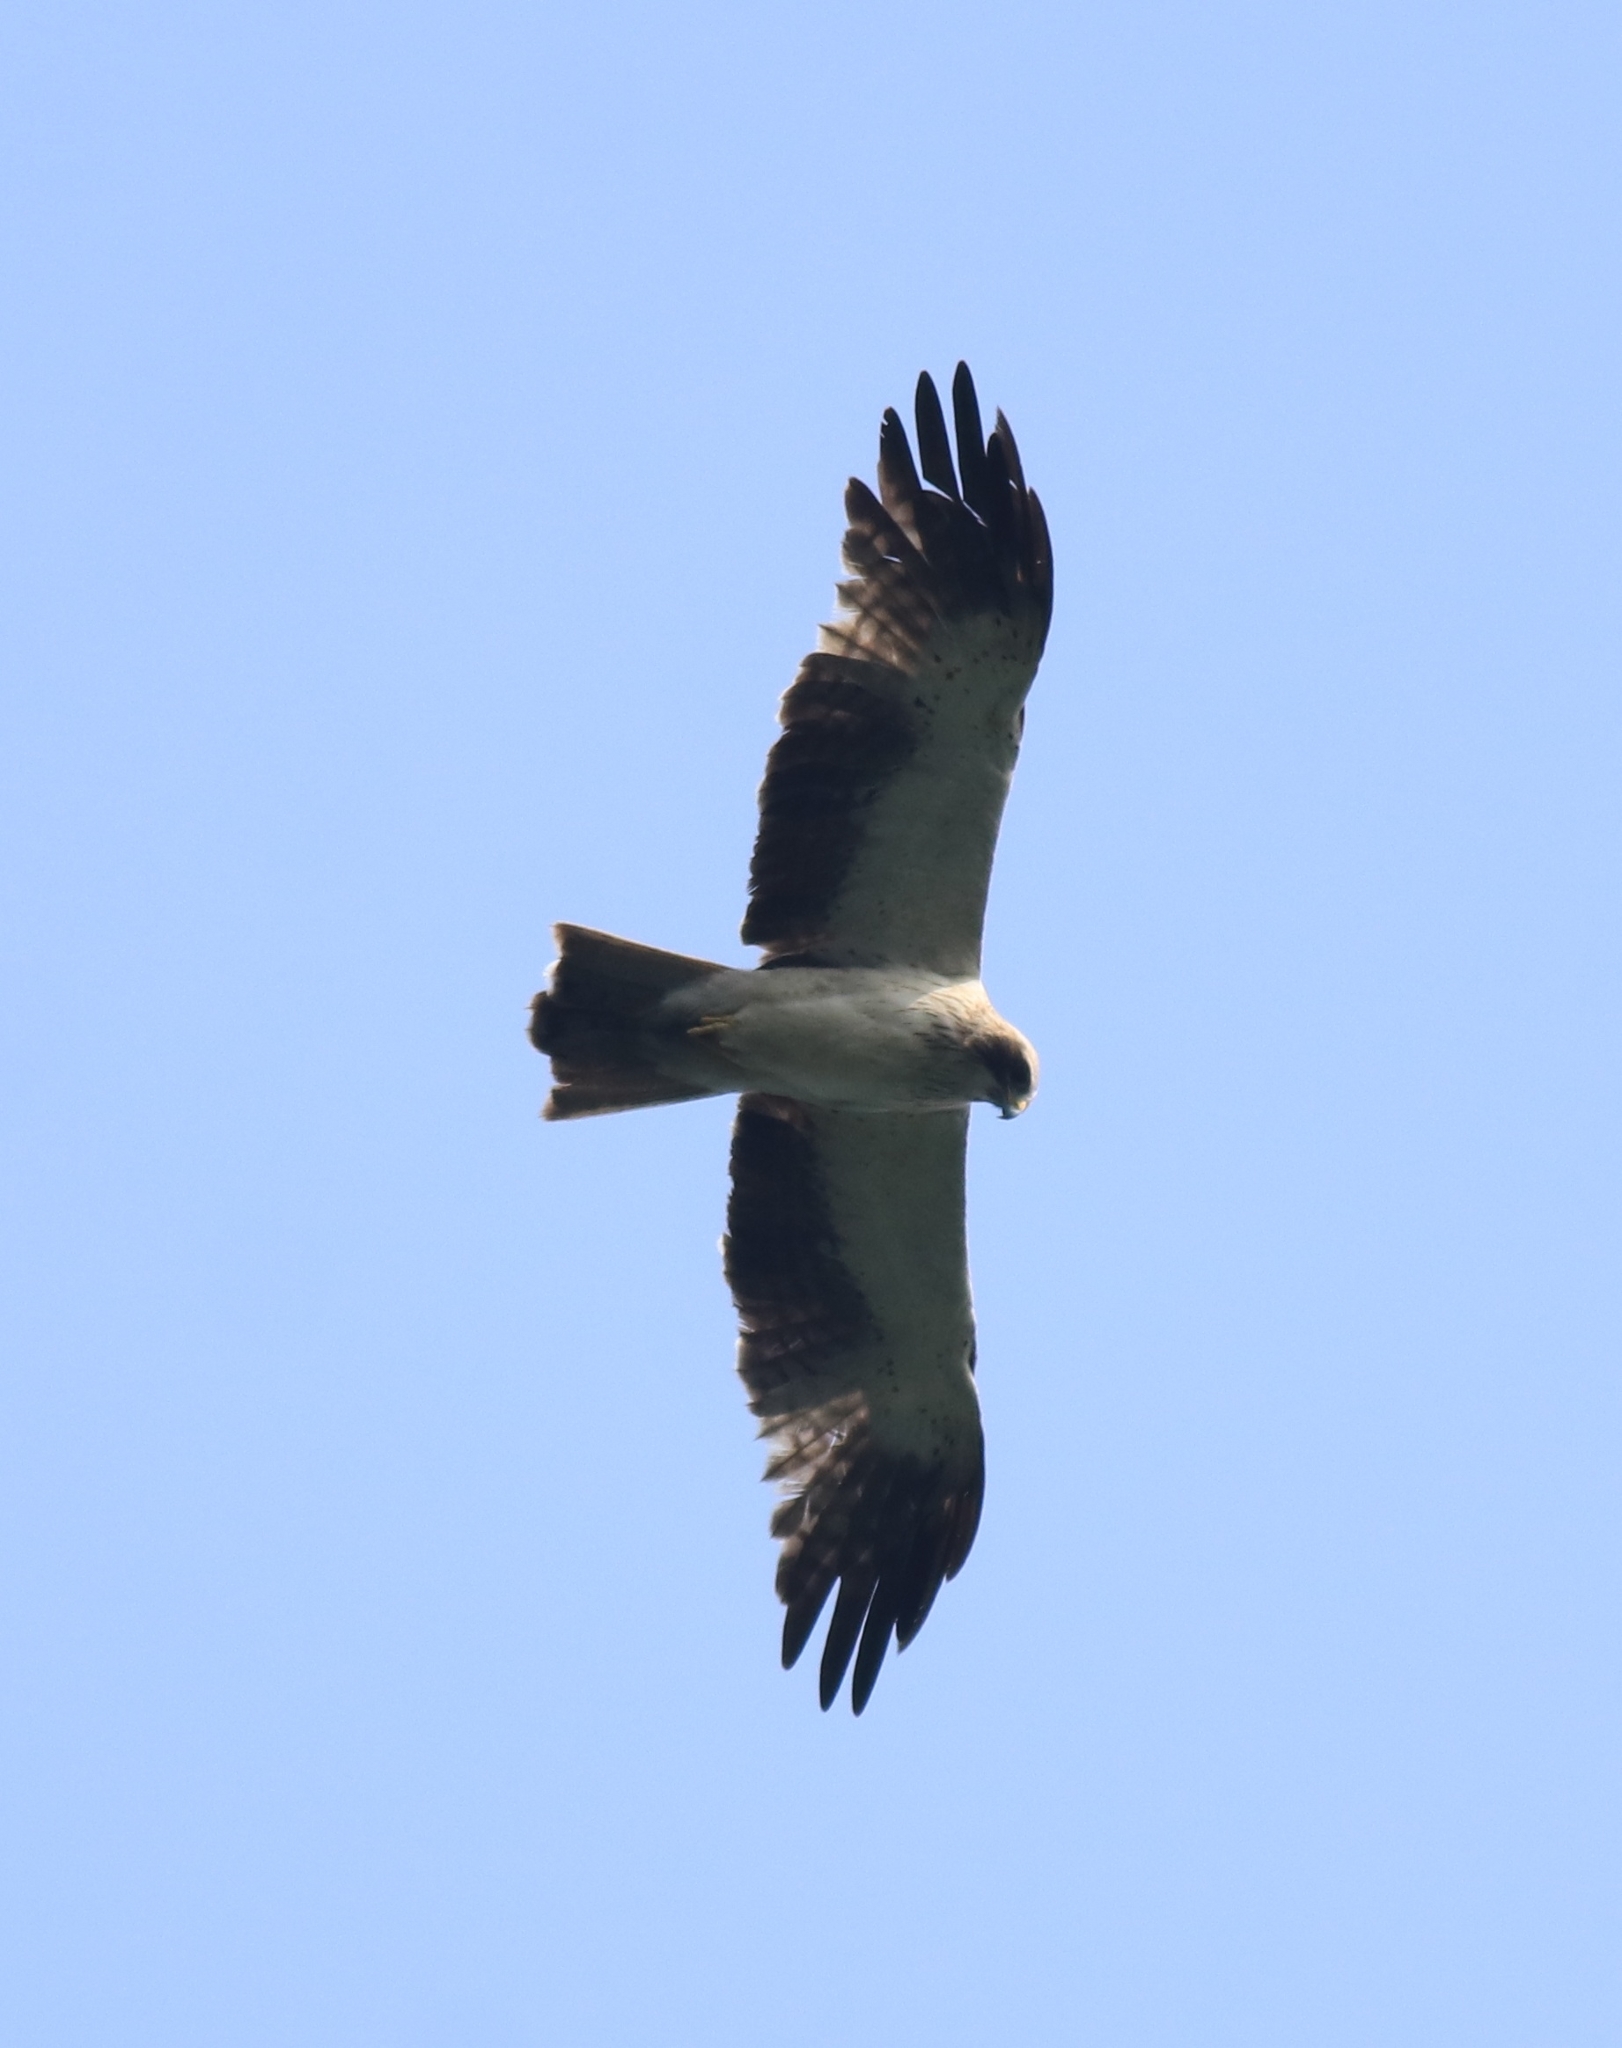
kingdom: Animalia
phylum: Chordata
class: Aves
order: Accipitriformes
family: Accipitridae
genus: Hieraaetus
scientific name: Hieraaetus pennatus
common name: Booted eagle
